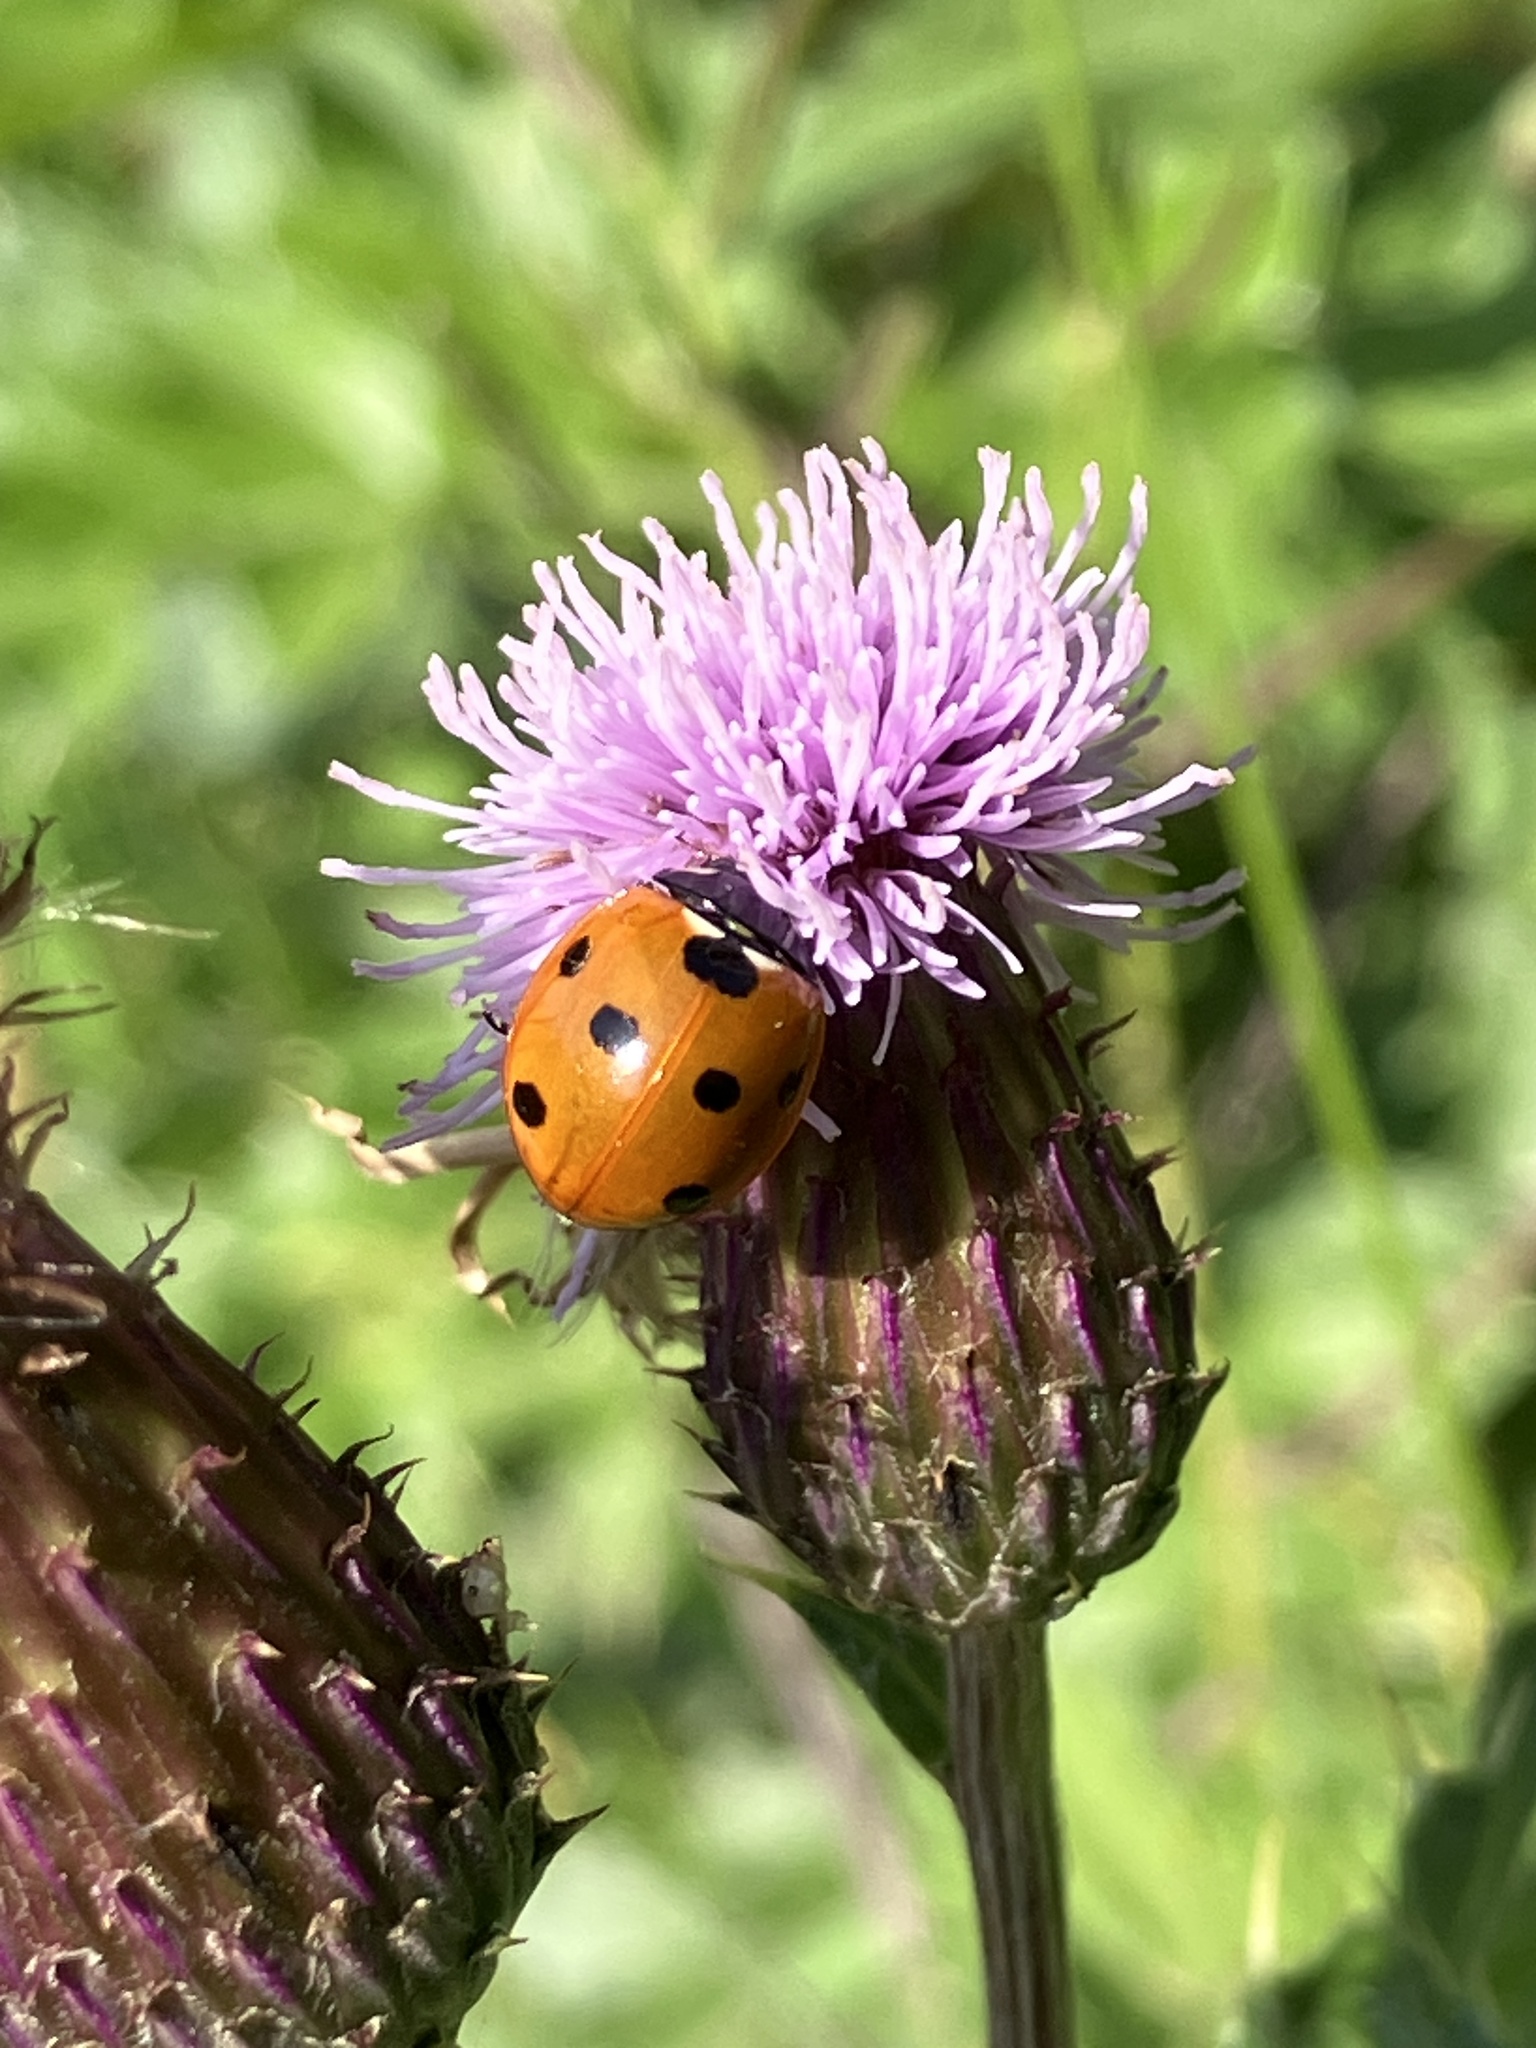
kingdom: Animalia
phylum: Arthropoda
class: Insecta
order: Coleoptera
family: Coccinellidae
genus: Coccinella
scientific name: Coccinella septempunctata
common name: Sevenspotted lady beetle
